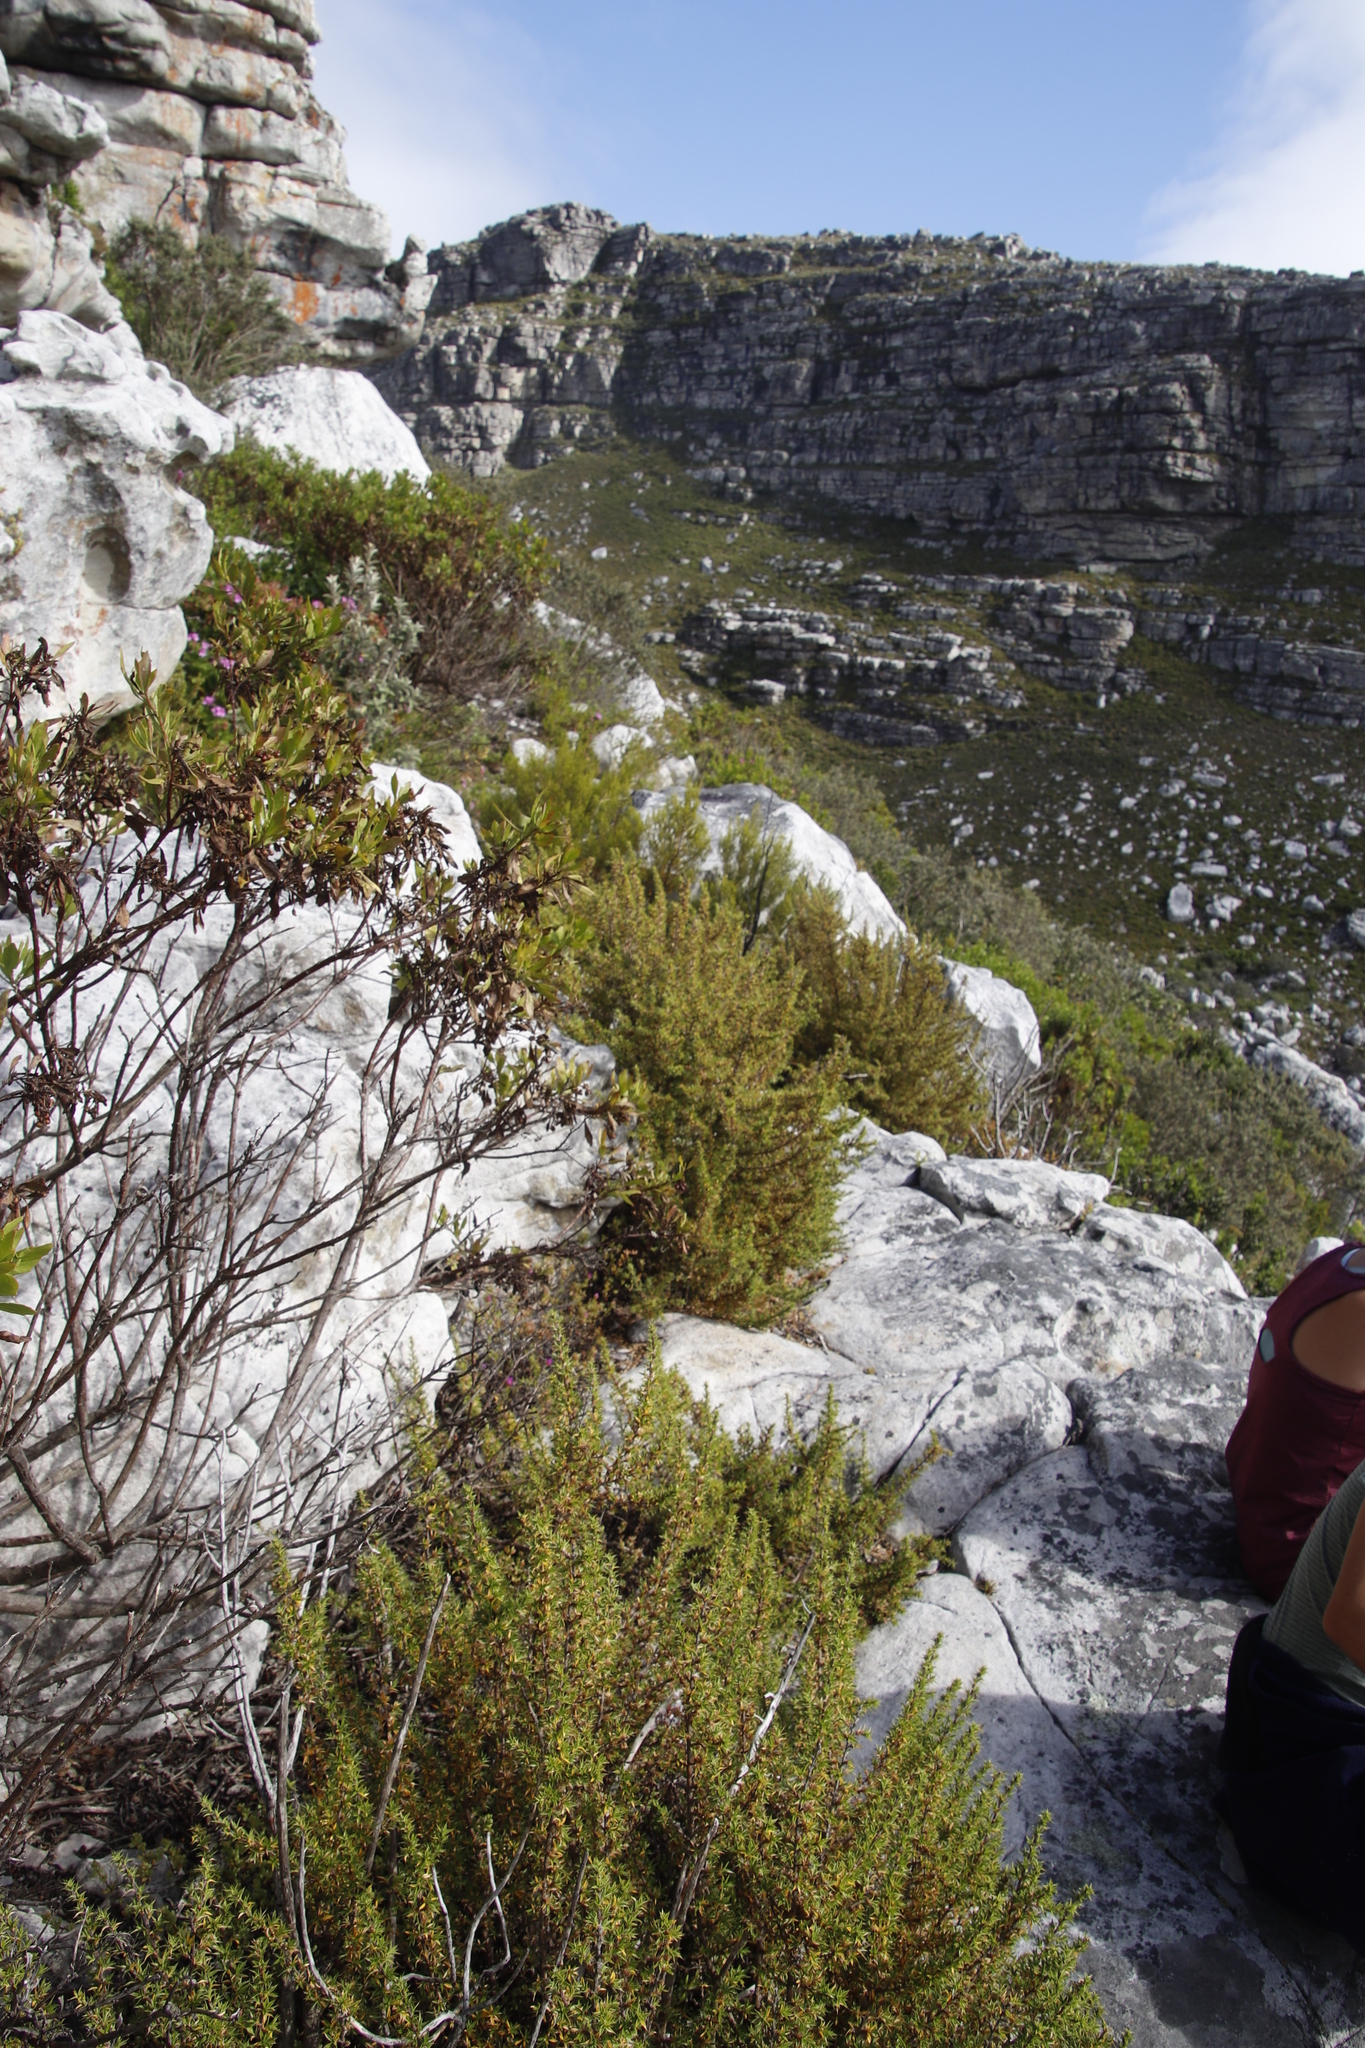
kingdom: Plantae
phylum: Tracheophyta
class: Magnoliopsida
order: Rosales
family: Rosaceae
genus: Cliffortia
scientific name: Cliffortia ruscifolia
